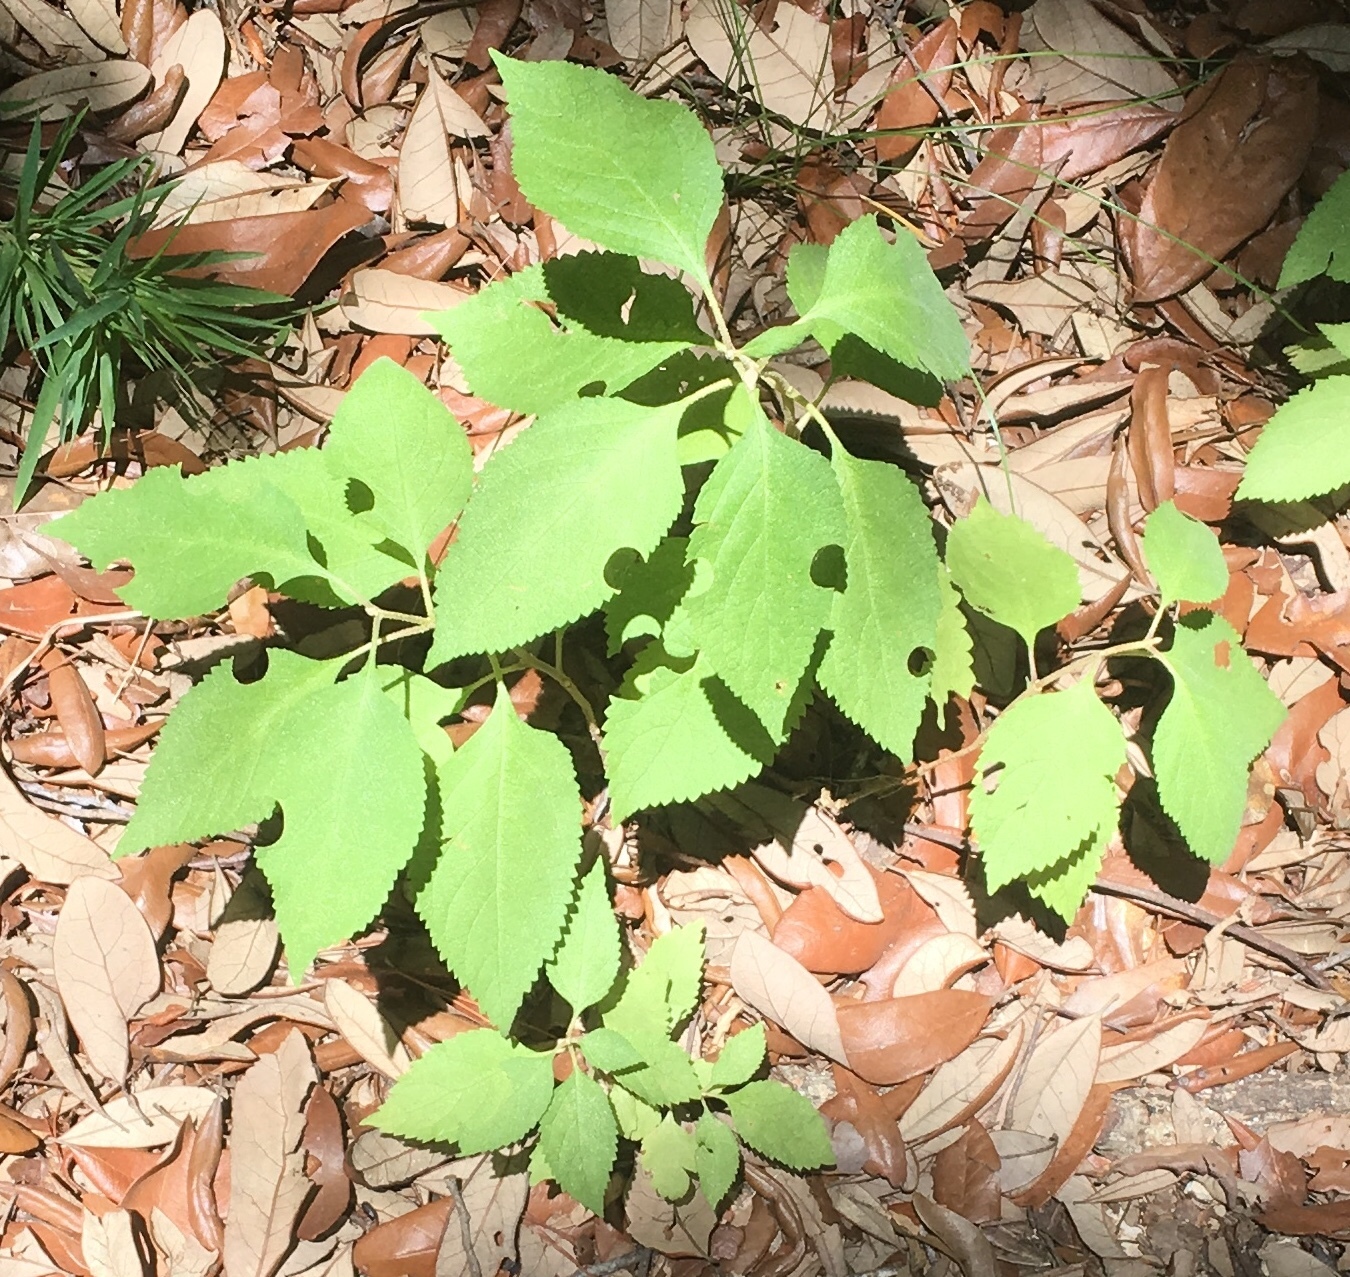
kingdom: Plantae
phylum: Tracheophyta
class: Magnoliopsida
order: Lamiales
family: Lamiaceae
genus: Callicarpa
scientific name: Callicarpa americana
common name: American beautyberry
